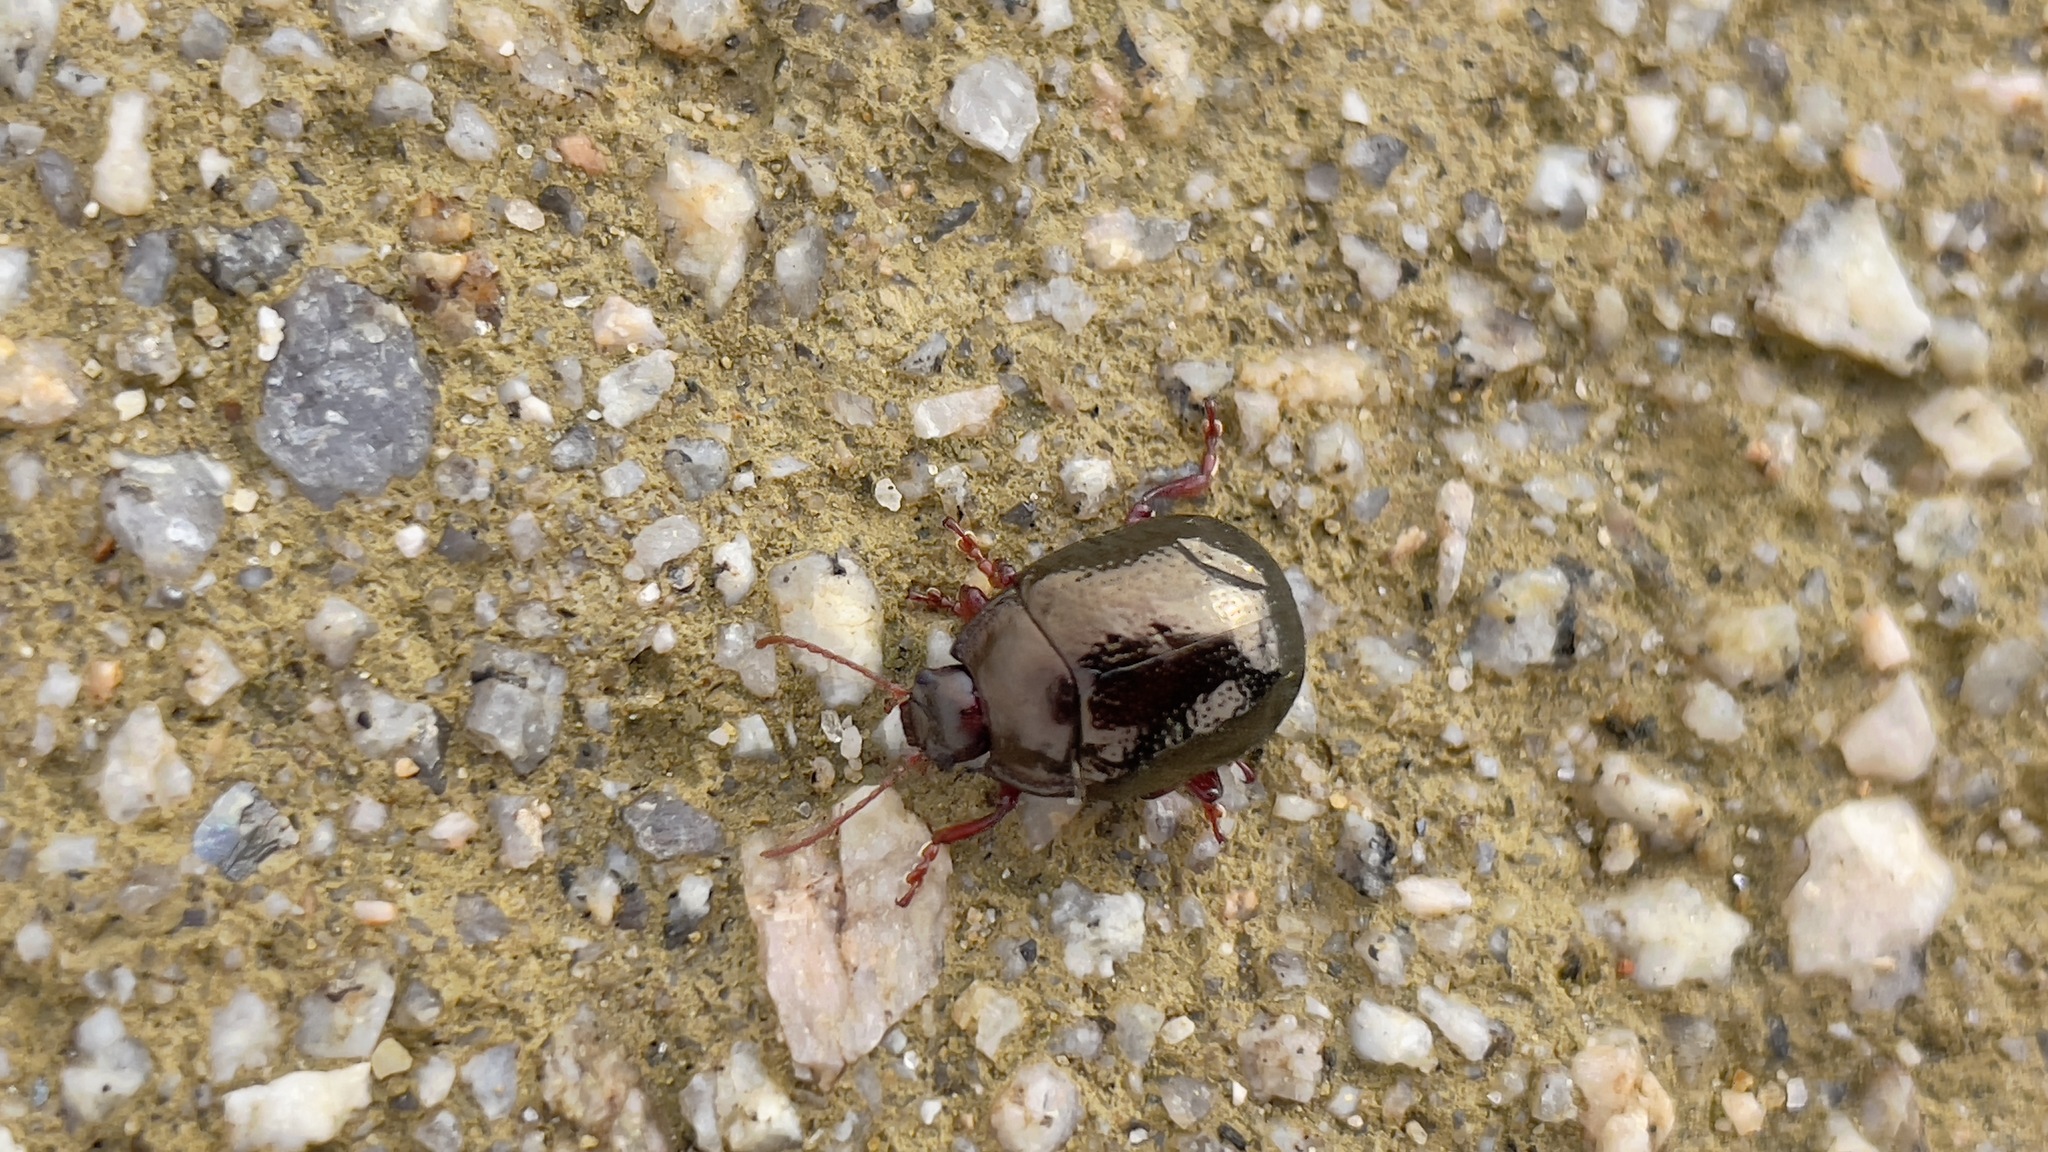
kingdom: Animalia
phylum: Arthropoda
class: Insecta
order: Coleoptera
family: Chrysomelidae
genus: Chrysolina
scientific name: Chrysolina bankii
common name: Leaf beetle
